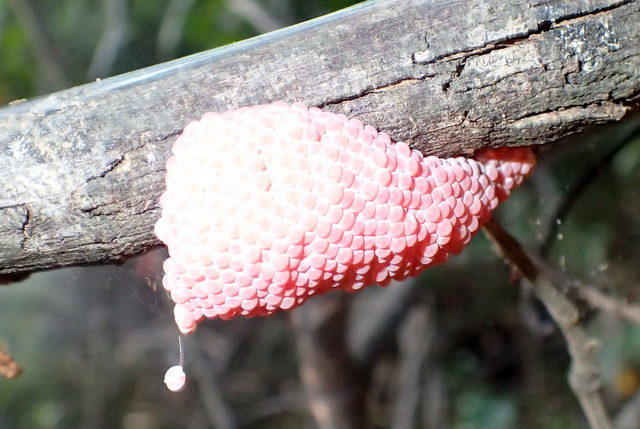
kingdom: Animalia
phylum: Mollusca
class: Gastropoda
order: Architaenioglossa
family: Ampullariidae
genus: Pomacea
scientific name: Pomacea maculata
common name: Giant applesnail
